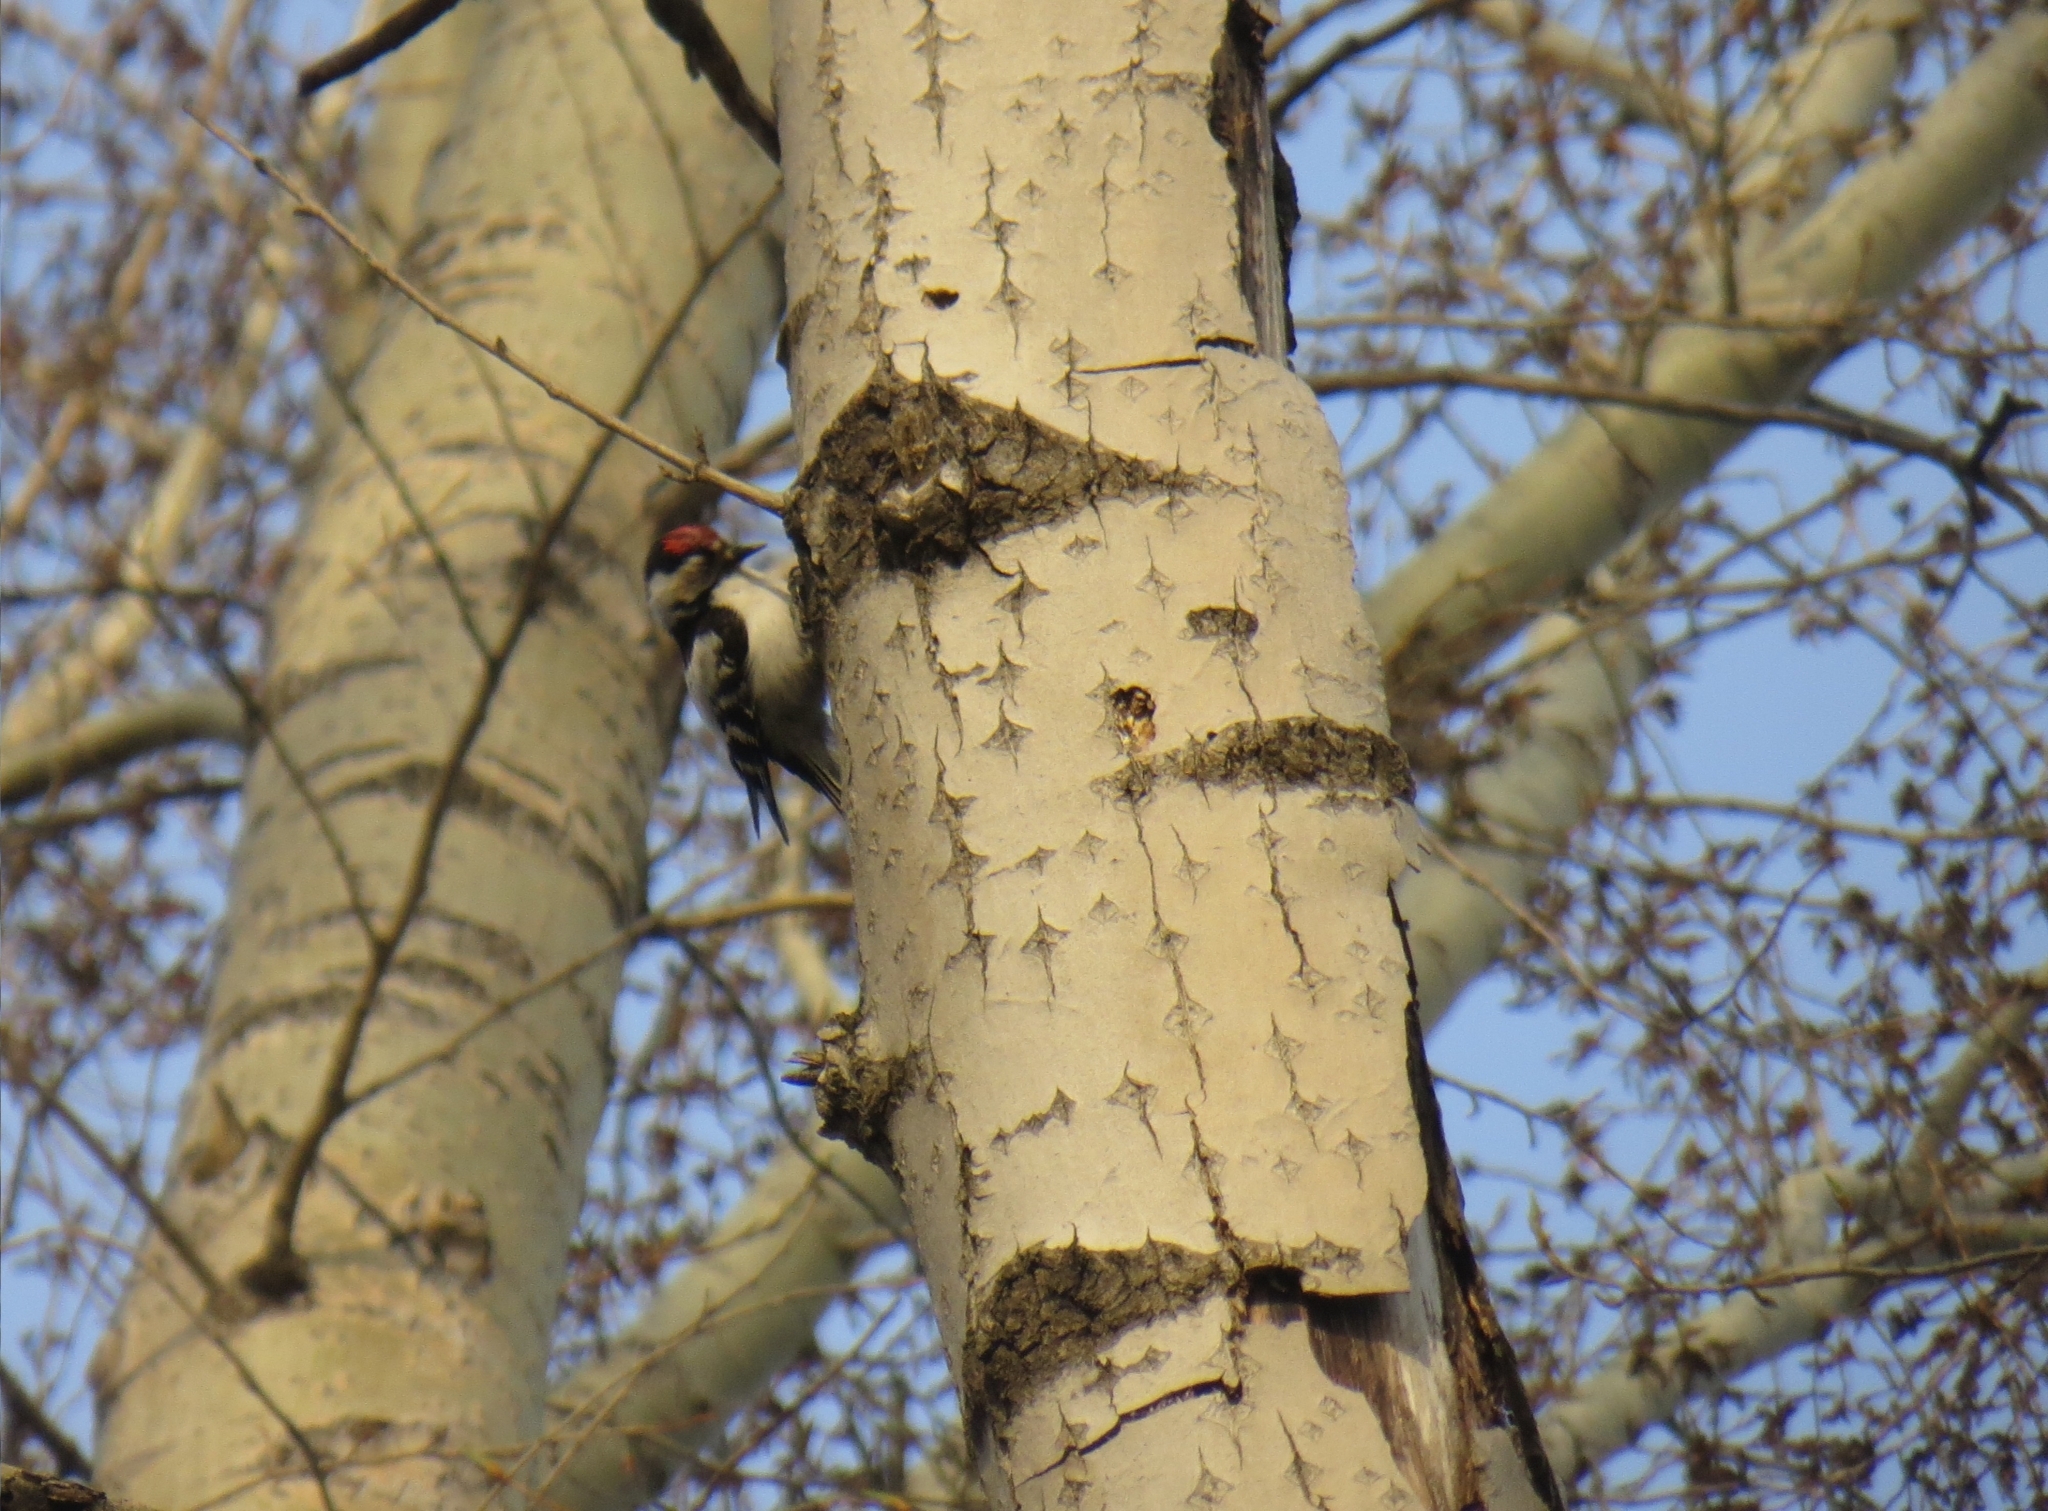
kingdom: Animalia
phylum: Chordata
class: Aves
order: Piciformes
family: Picidae
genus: Dryobates
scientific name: Dryobates minor
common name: Lesser spotted woodpecker
